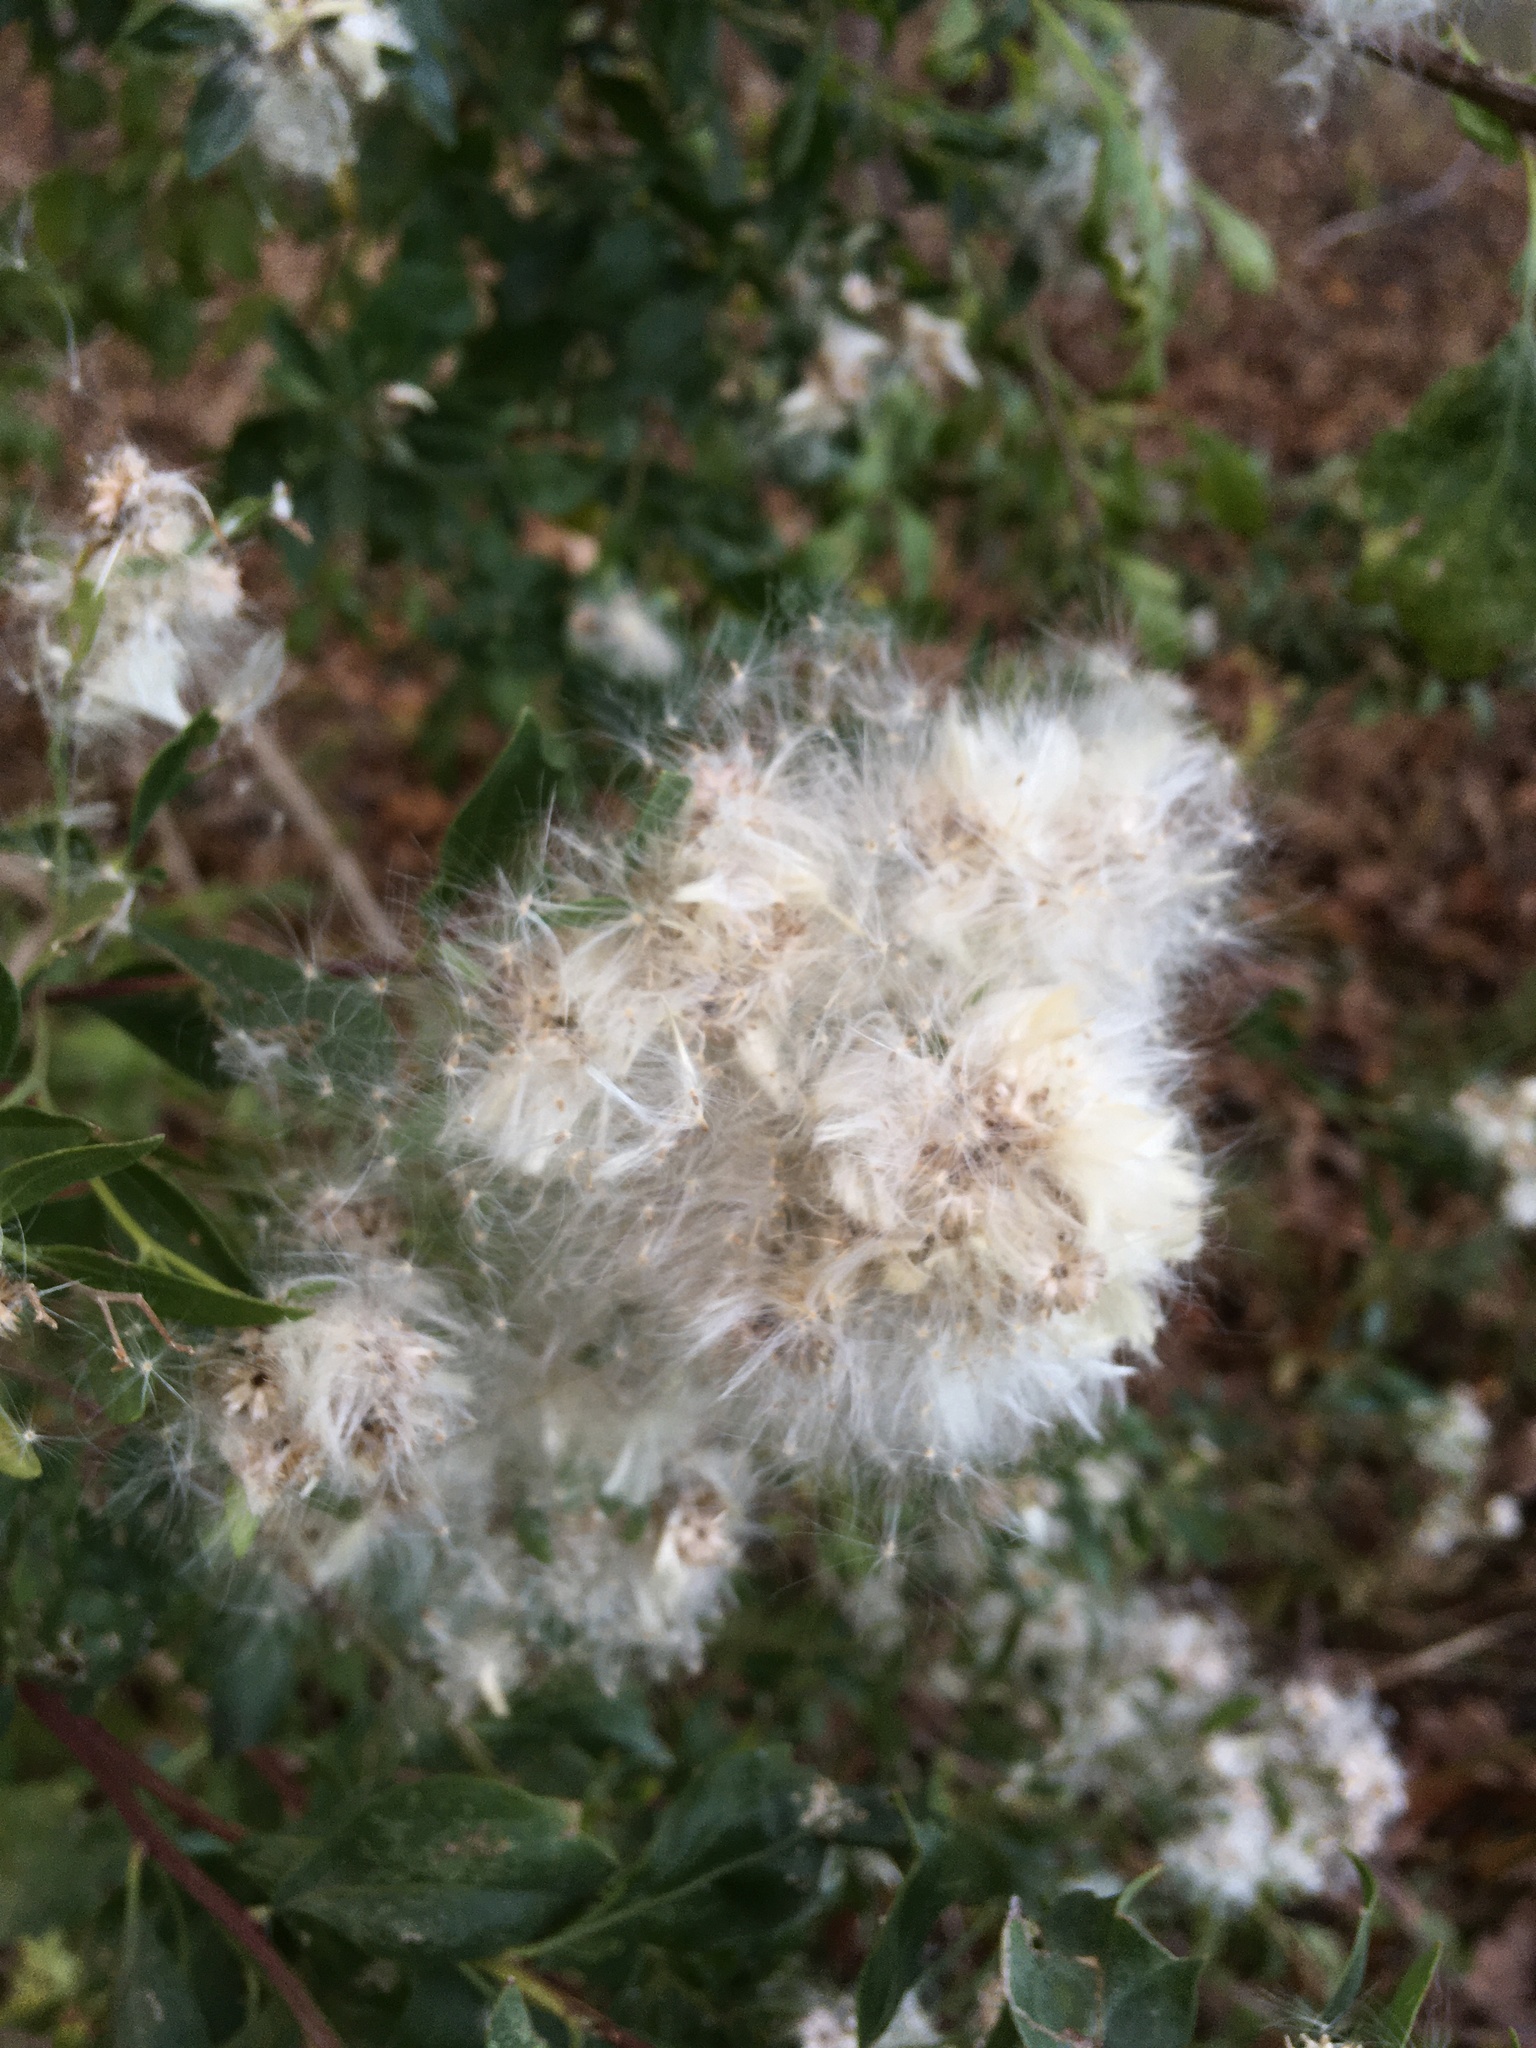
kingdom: Plantae
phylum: Tracheophyta
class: Magnoliopsida
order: Asterales
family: Asteraceae
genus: Baccharis
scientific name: Baccharis halimifolia
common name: Eastern baccharis
